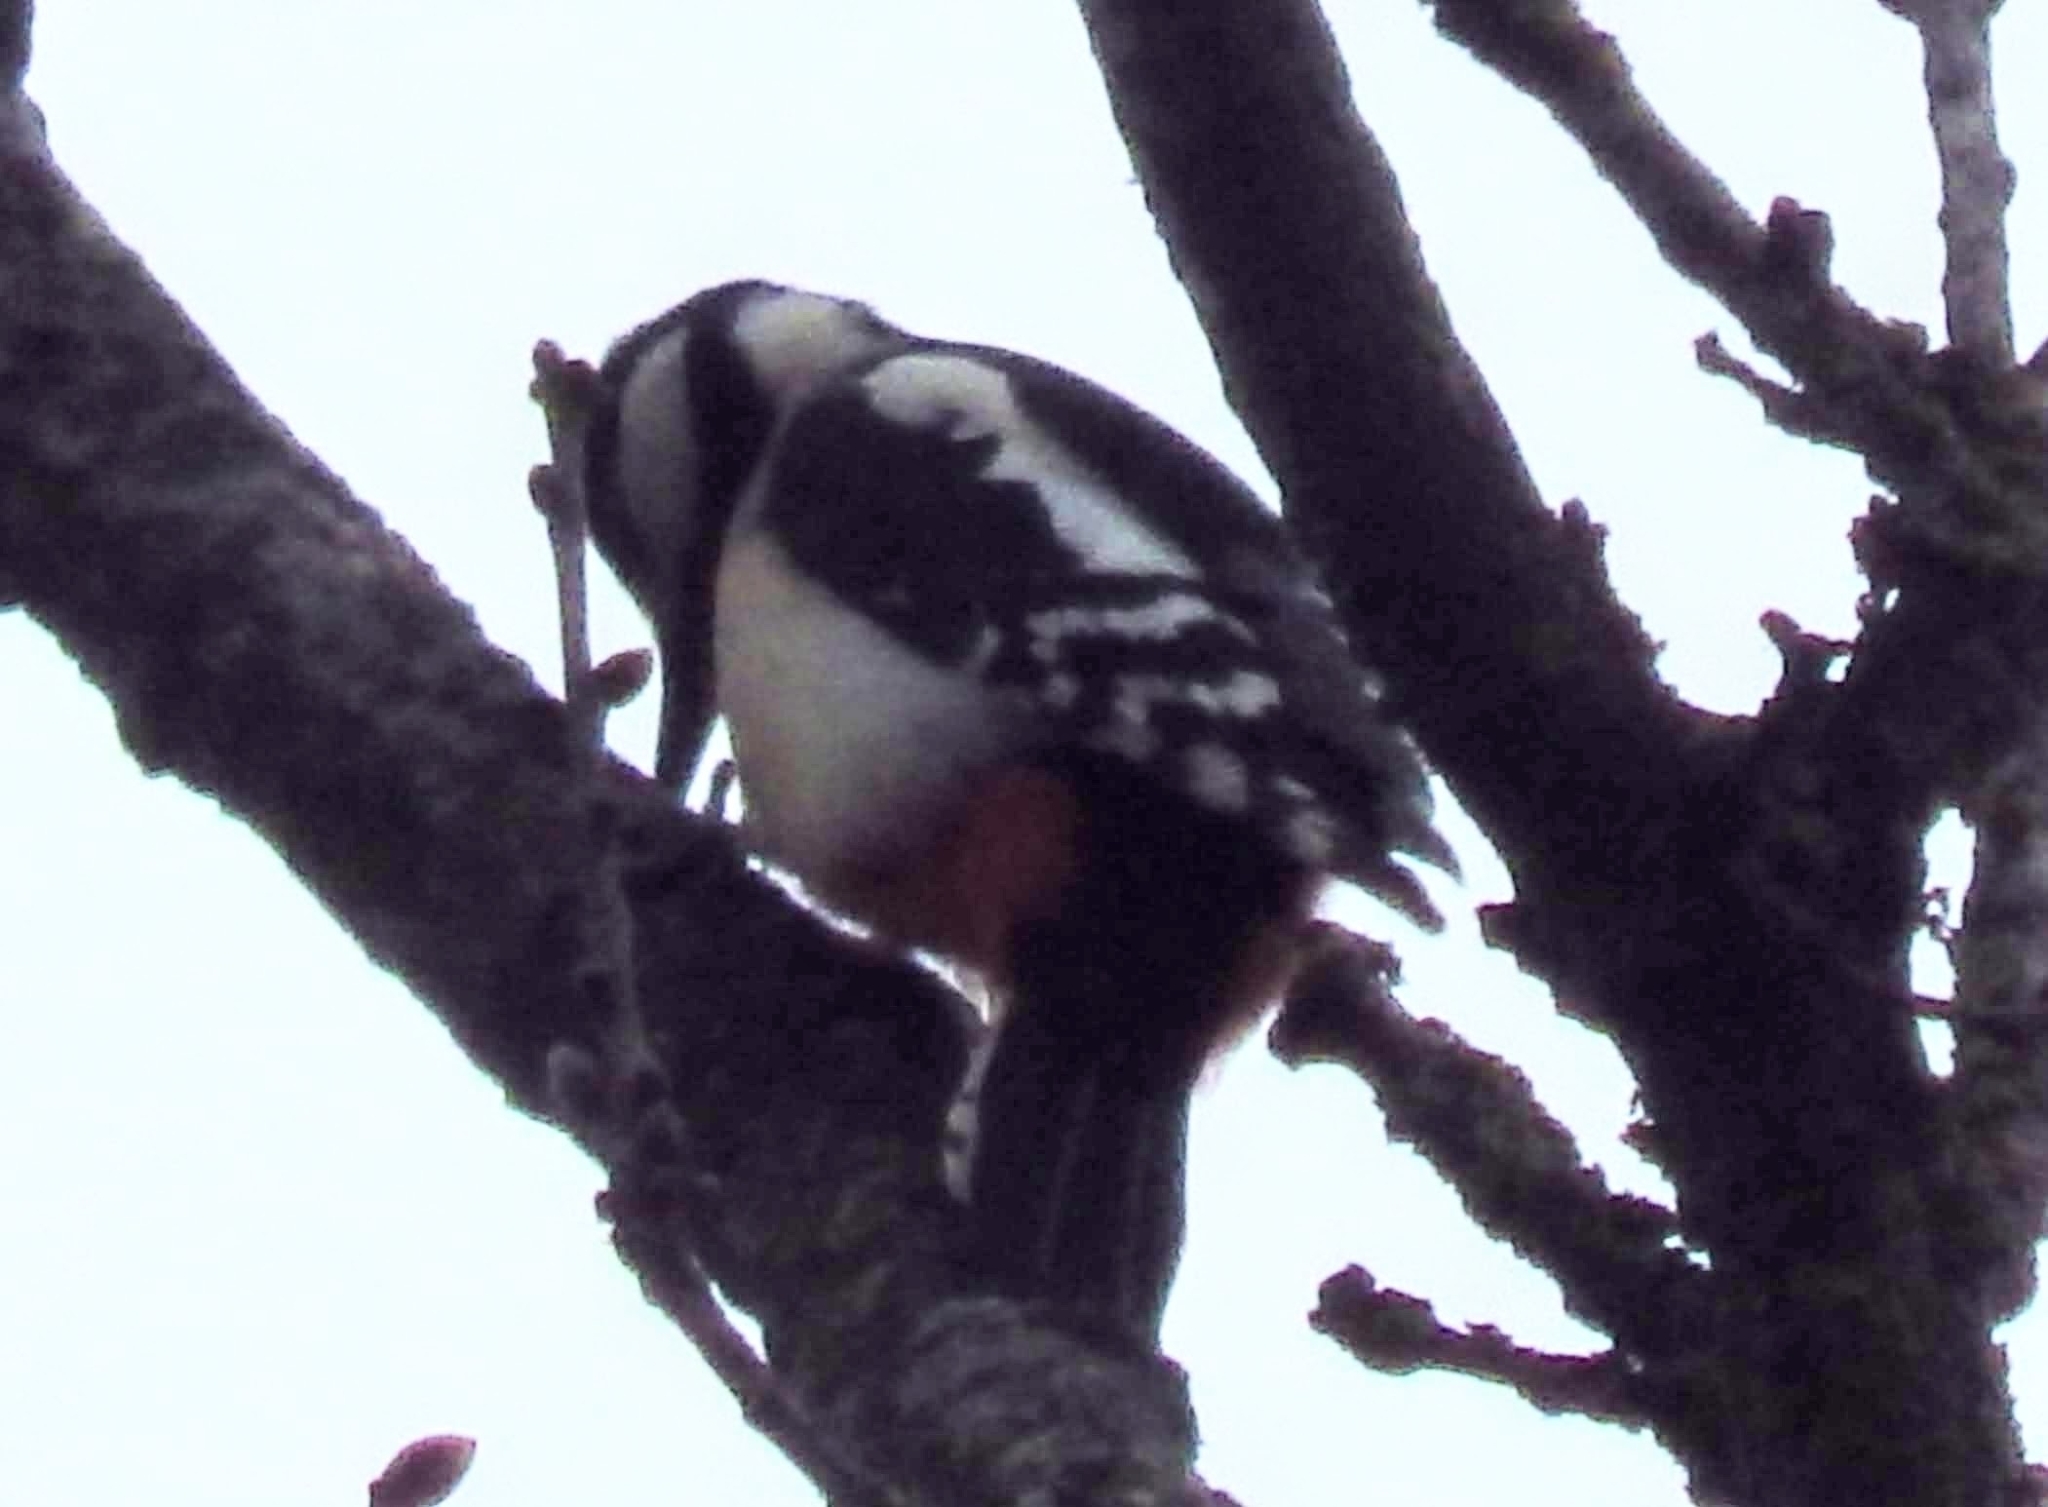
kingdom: Animalia
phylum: Chordata
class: Aves
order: Piciformes
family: Picidae
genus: Dendrocopos
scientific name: Dendrocopos major
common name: Great spotted woodpecker
